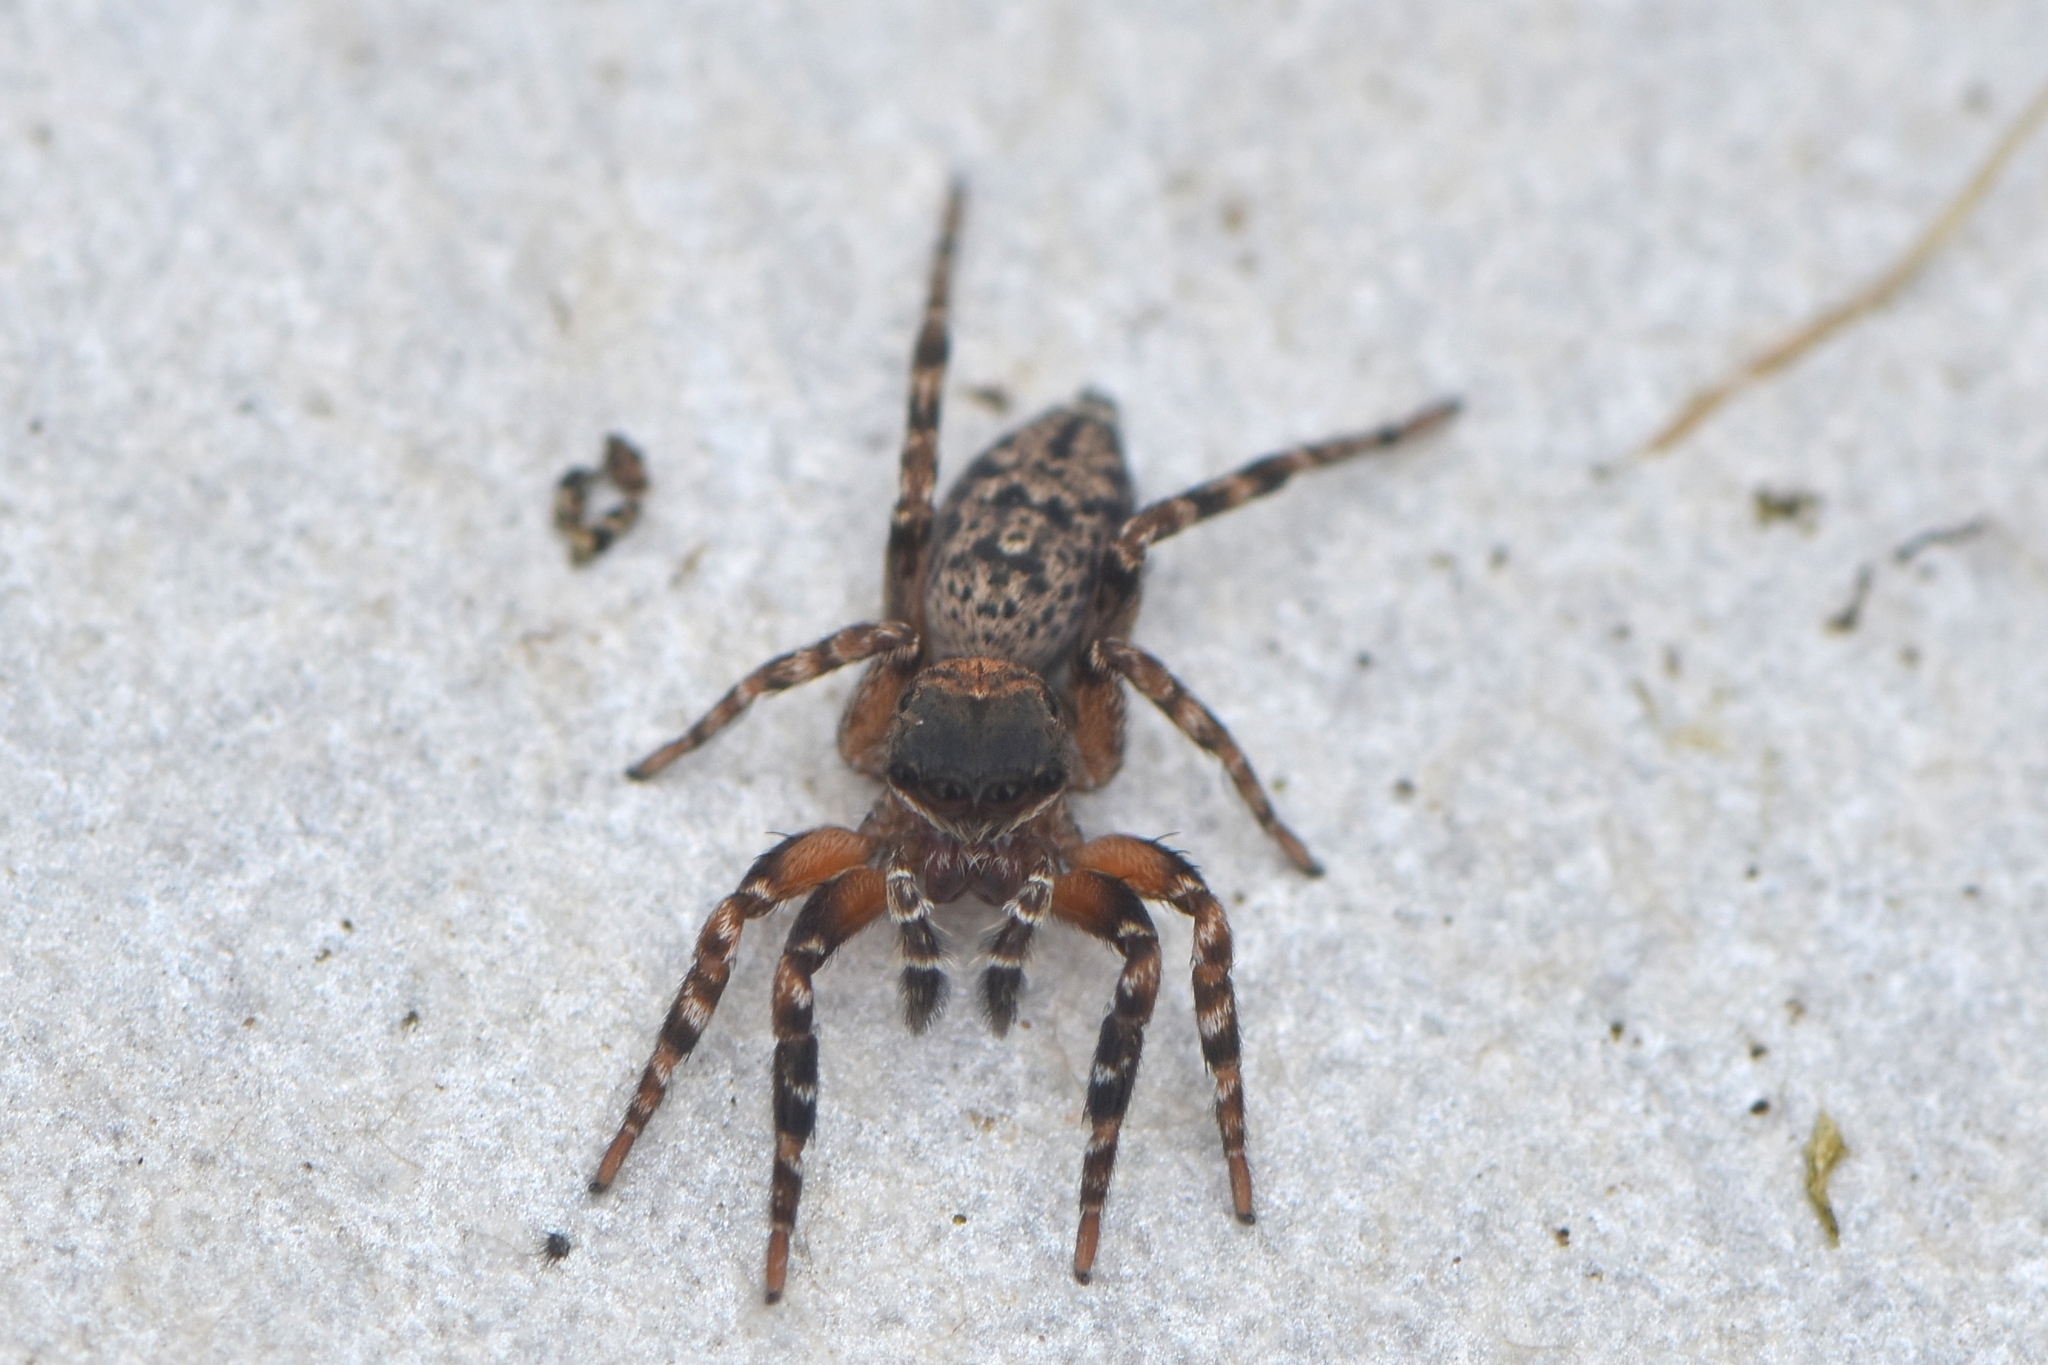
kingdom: Animalia
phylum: Arthropoda
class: Arachnida
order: Araneae
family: Salticidae
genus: Cyrba
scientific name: Cyrba algerina
